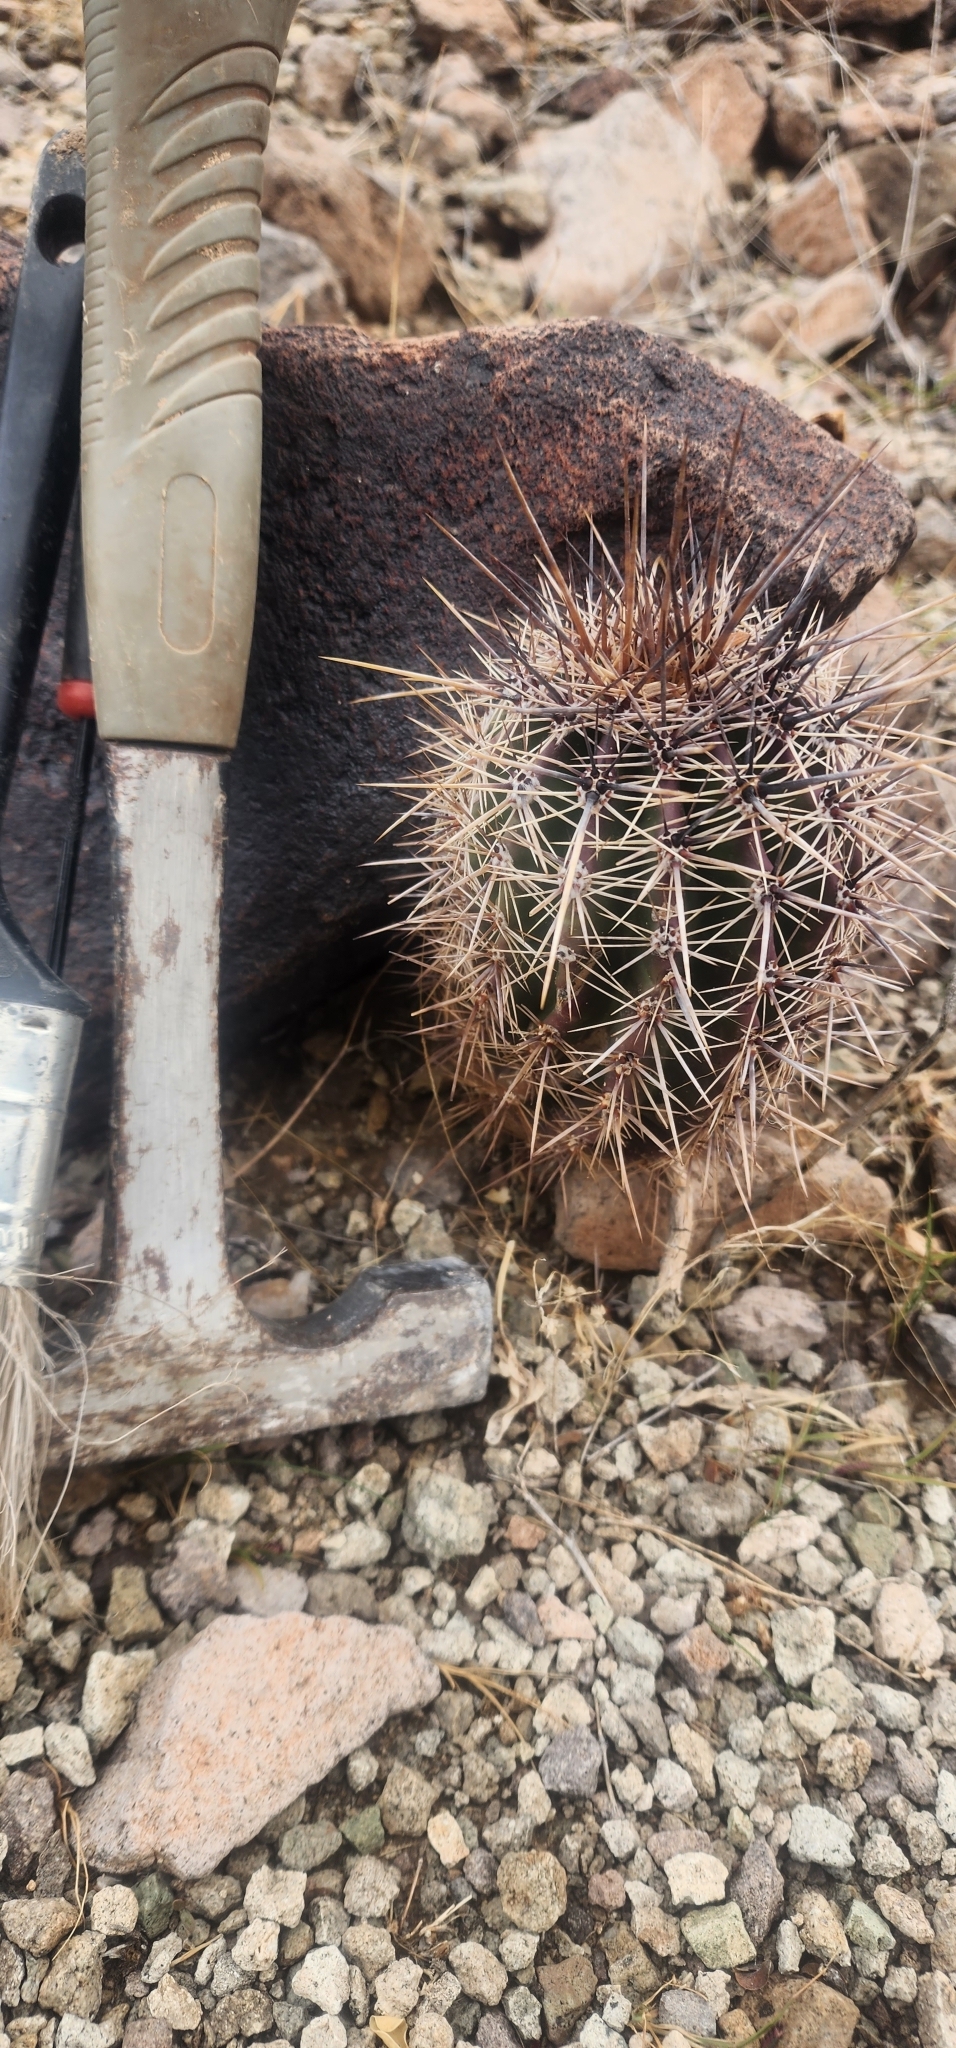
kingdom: Plantae
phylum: Tracheophyta
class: Magnoliopsida
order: Caryophyllales
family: Cactaceae
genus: Carnegiea
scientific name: Carnegiea gigantea
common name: Saguaro
